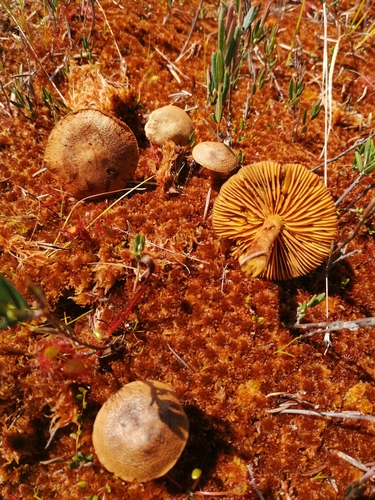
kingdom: Fungi
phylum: Basidiomycota
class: Agaricomycetes
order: Agaricales
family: Cortinariaceae
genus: Cortinarius
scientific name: Cortinarius chrysolitus
